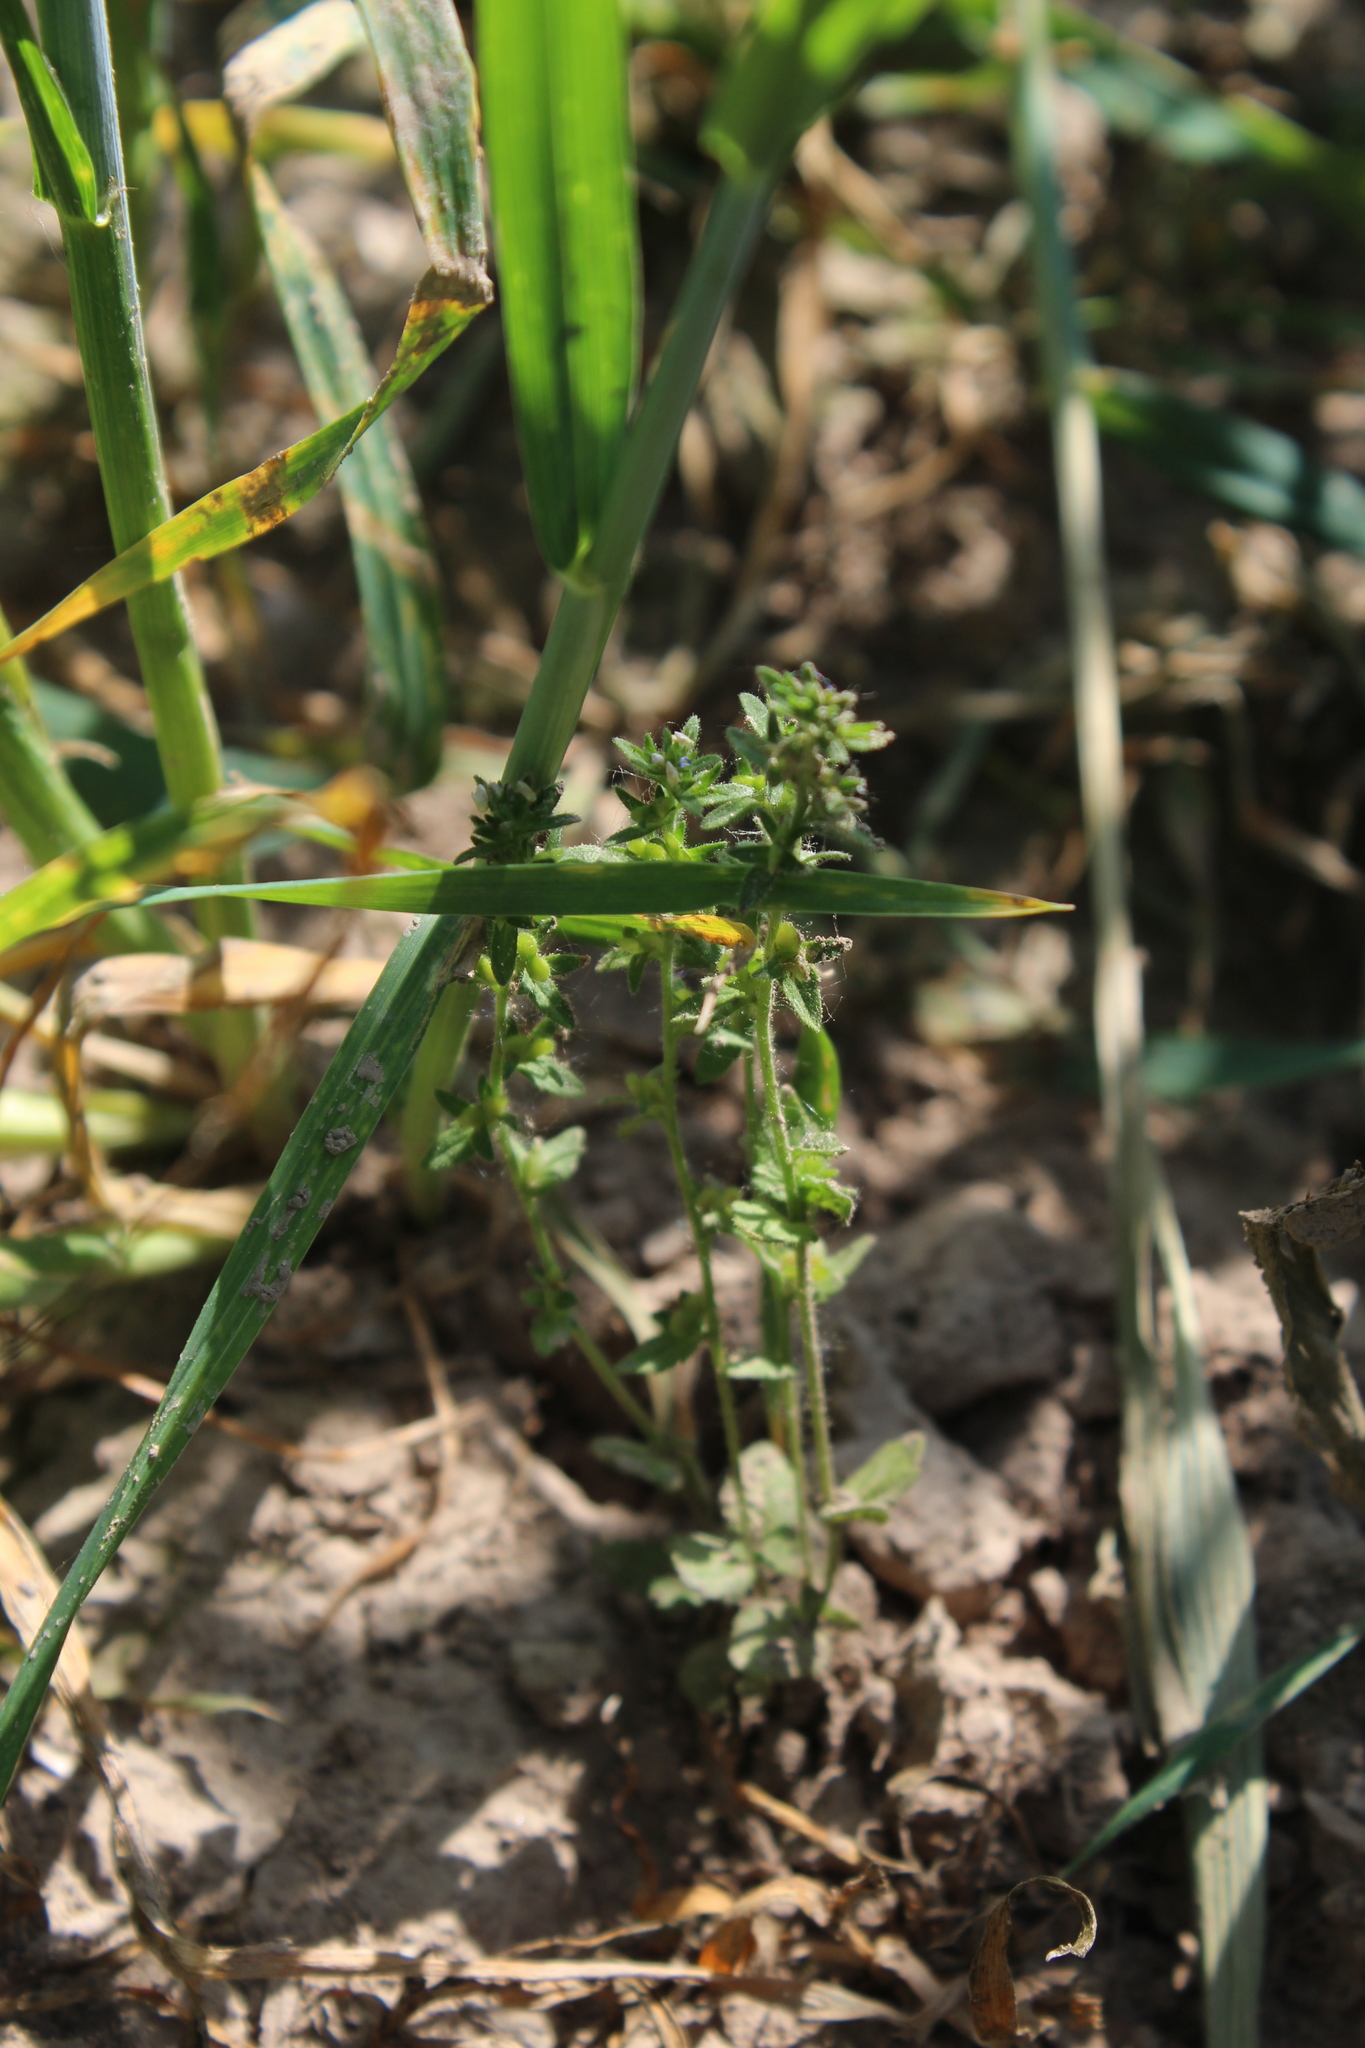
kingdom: Plantae
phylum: Tracheophyta
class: Magnoliopsida
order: Lamiales
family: Plantaginaceae
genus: Veronica
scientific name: Veronica arvensis
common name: Corn speedwell
